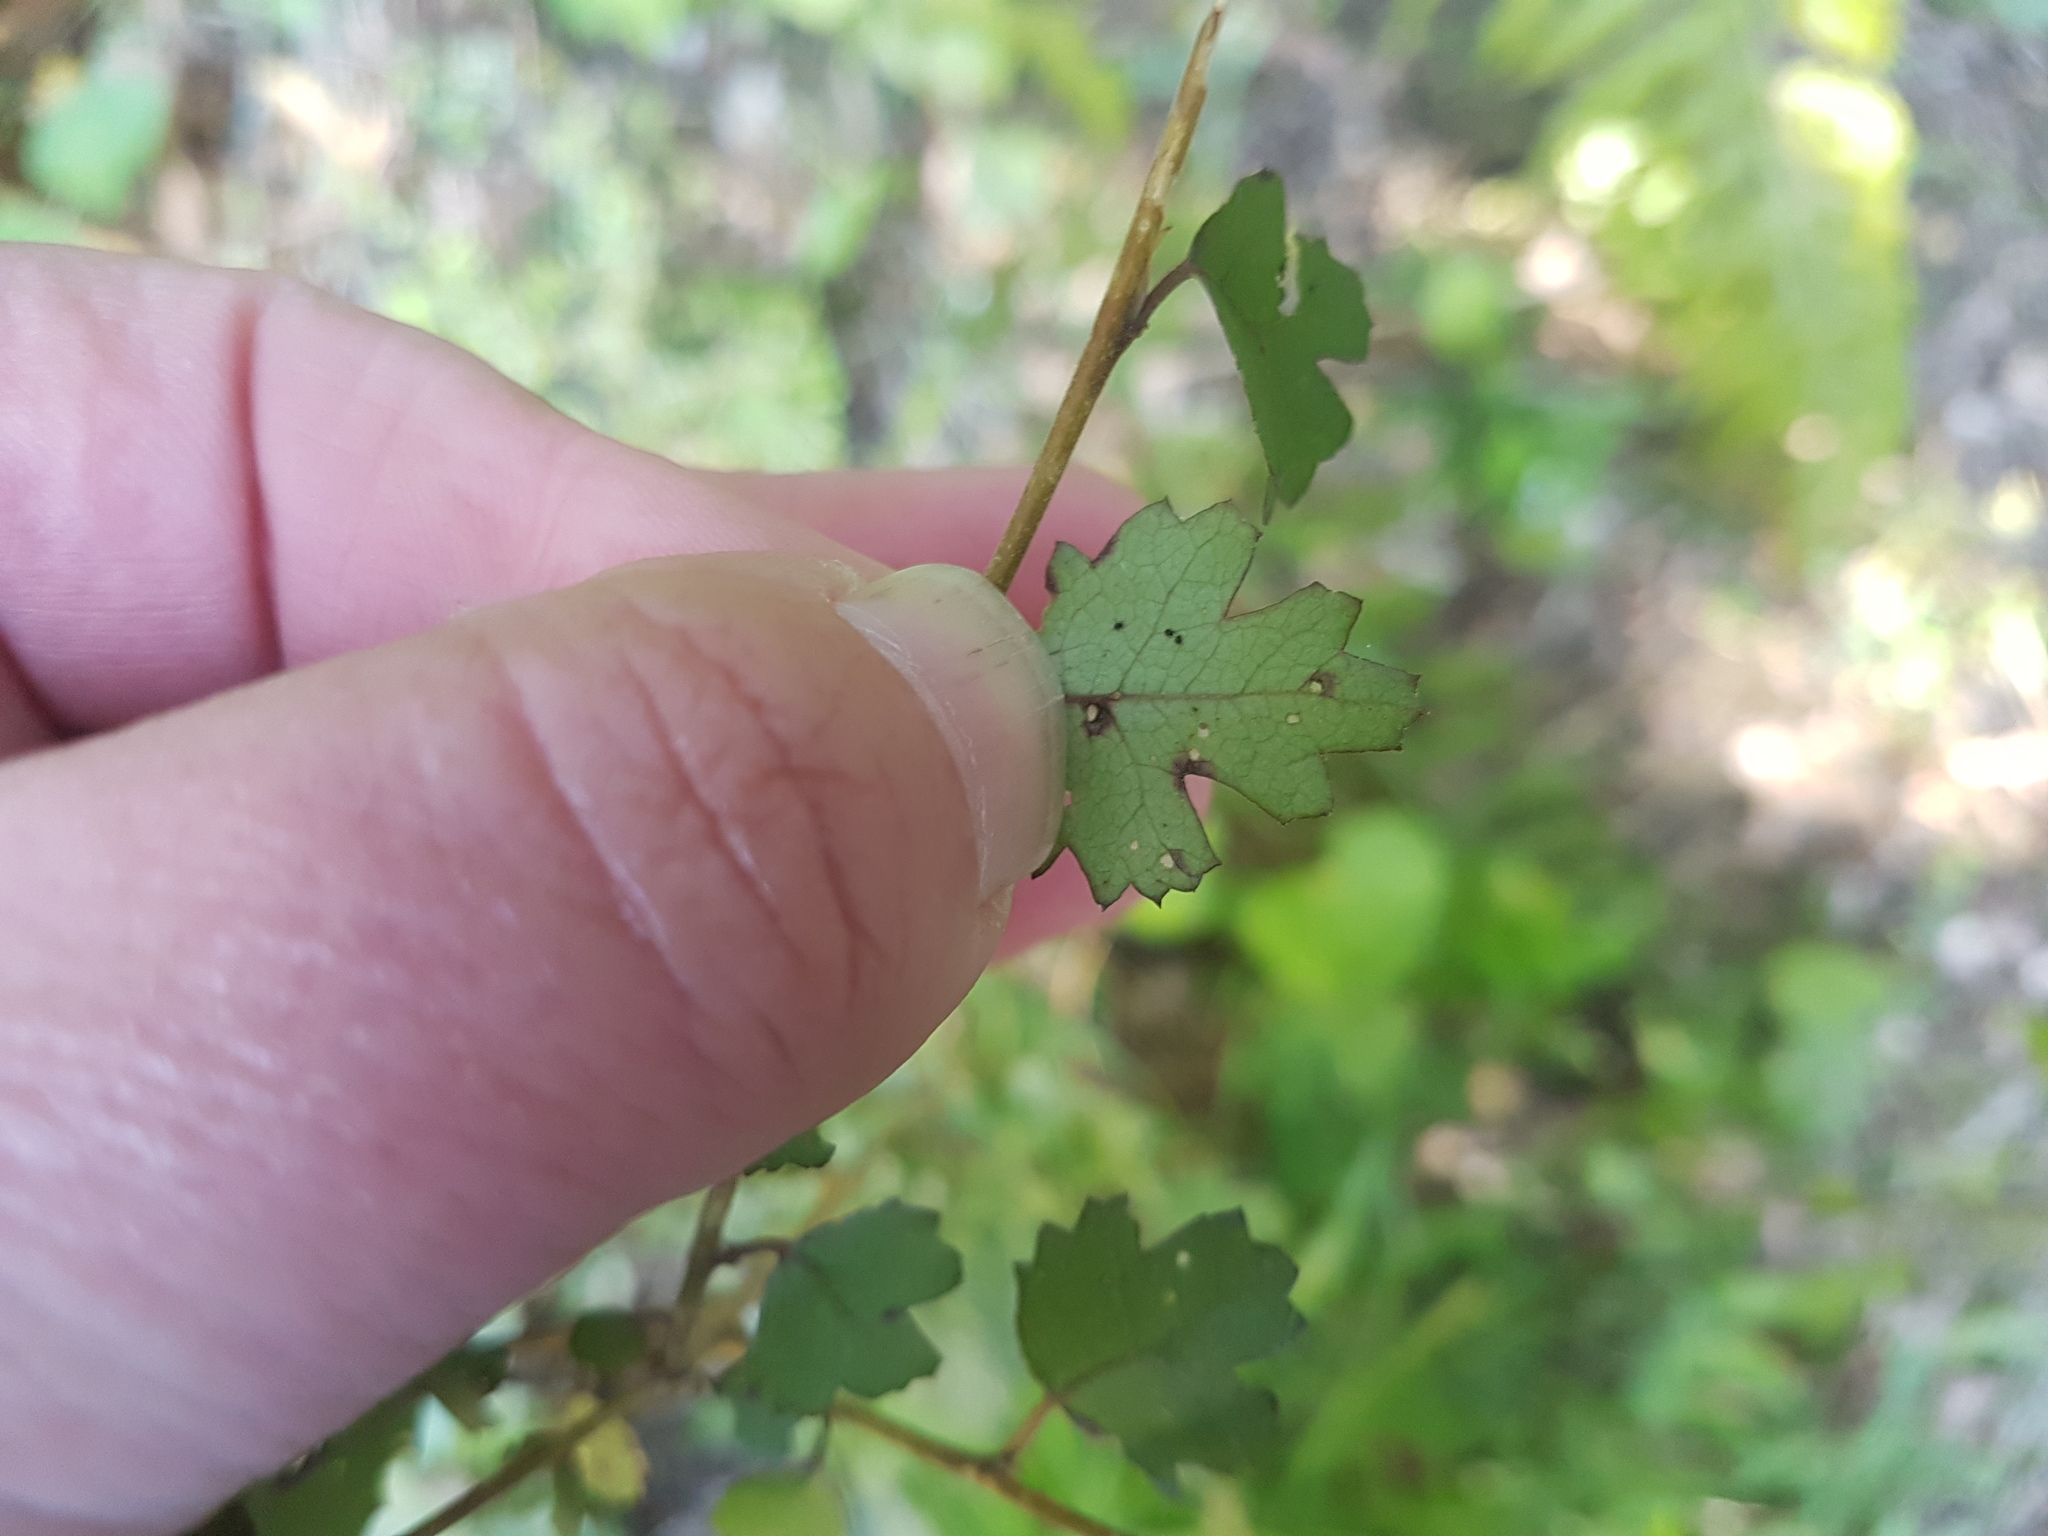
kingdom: Plantae
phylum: Tracheophyta
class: Magnoliopsida
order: Malvales
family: Malvaceae
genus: Plagianthus
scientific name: Plagianthus regius
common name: Manatu
